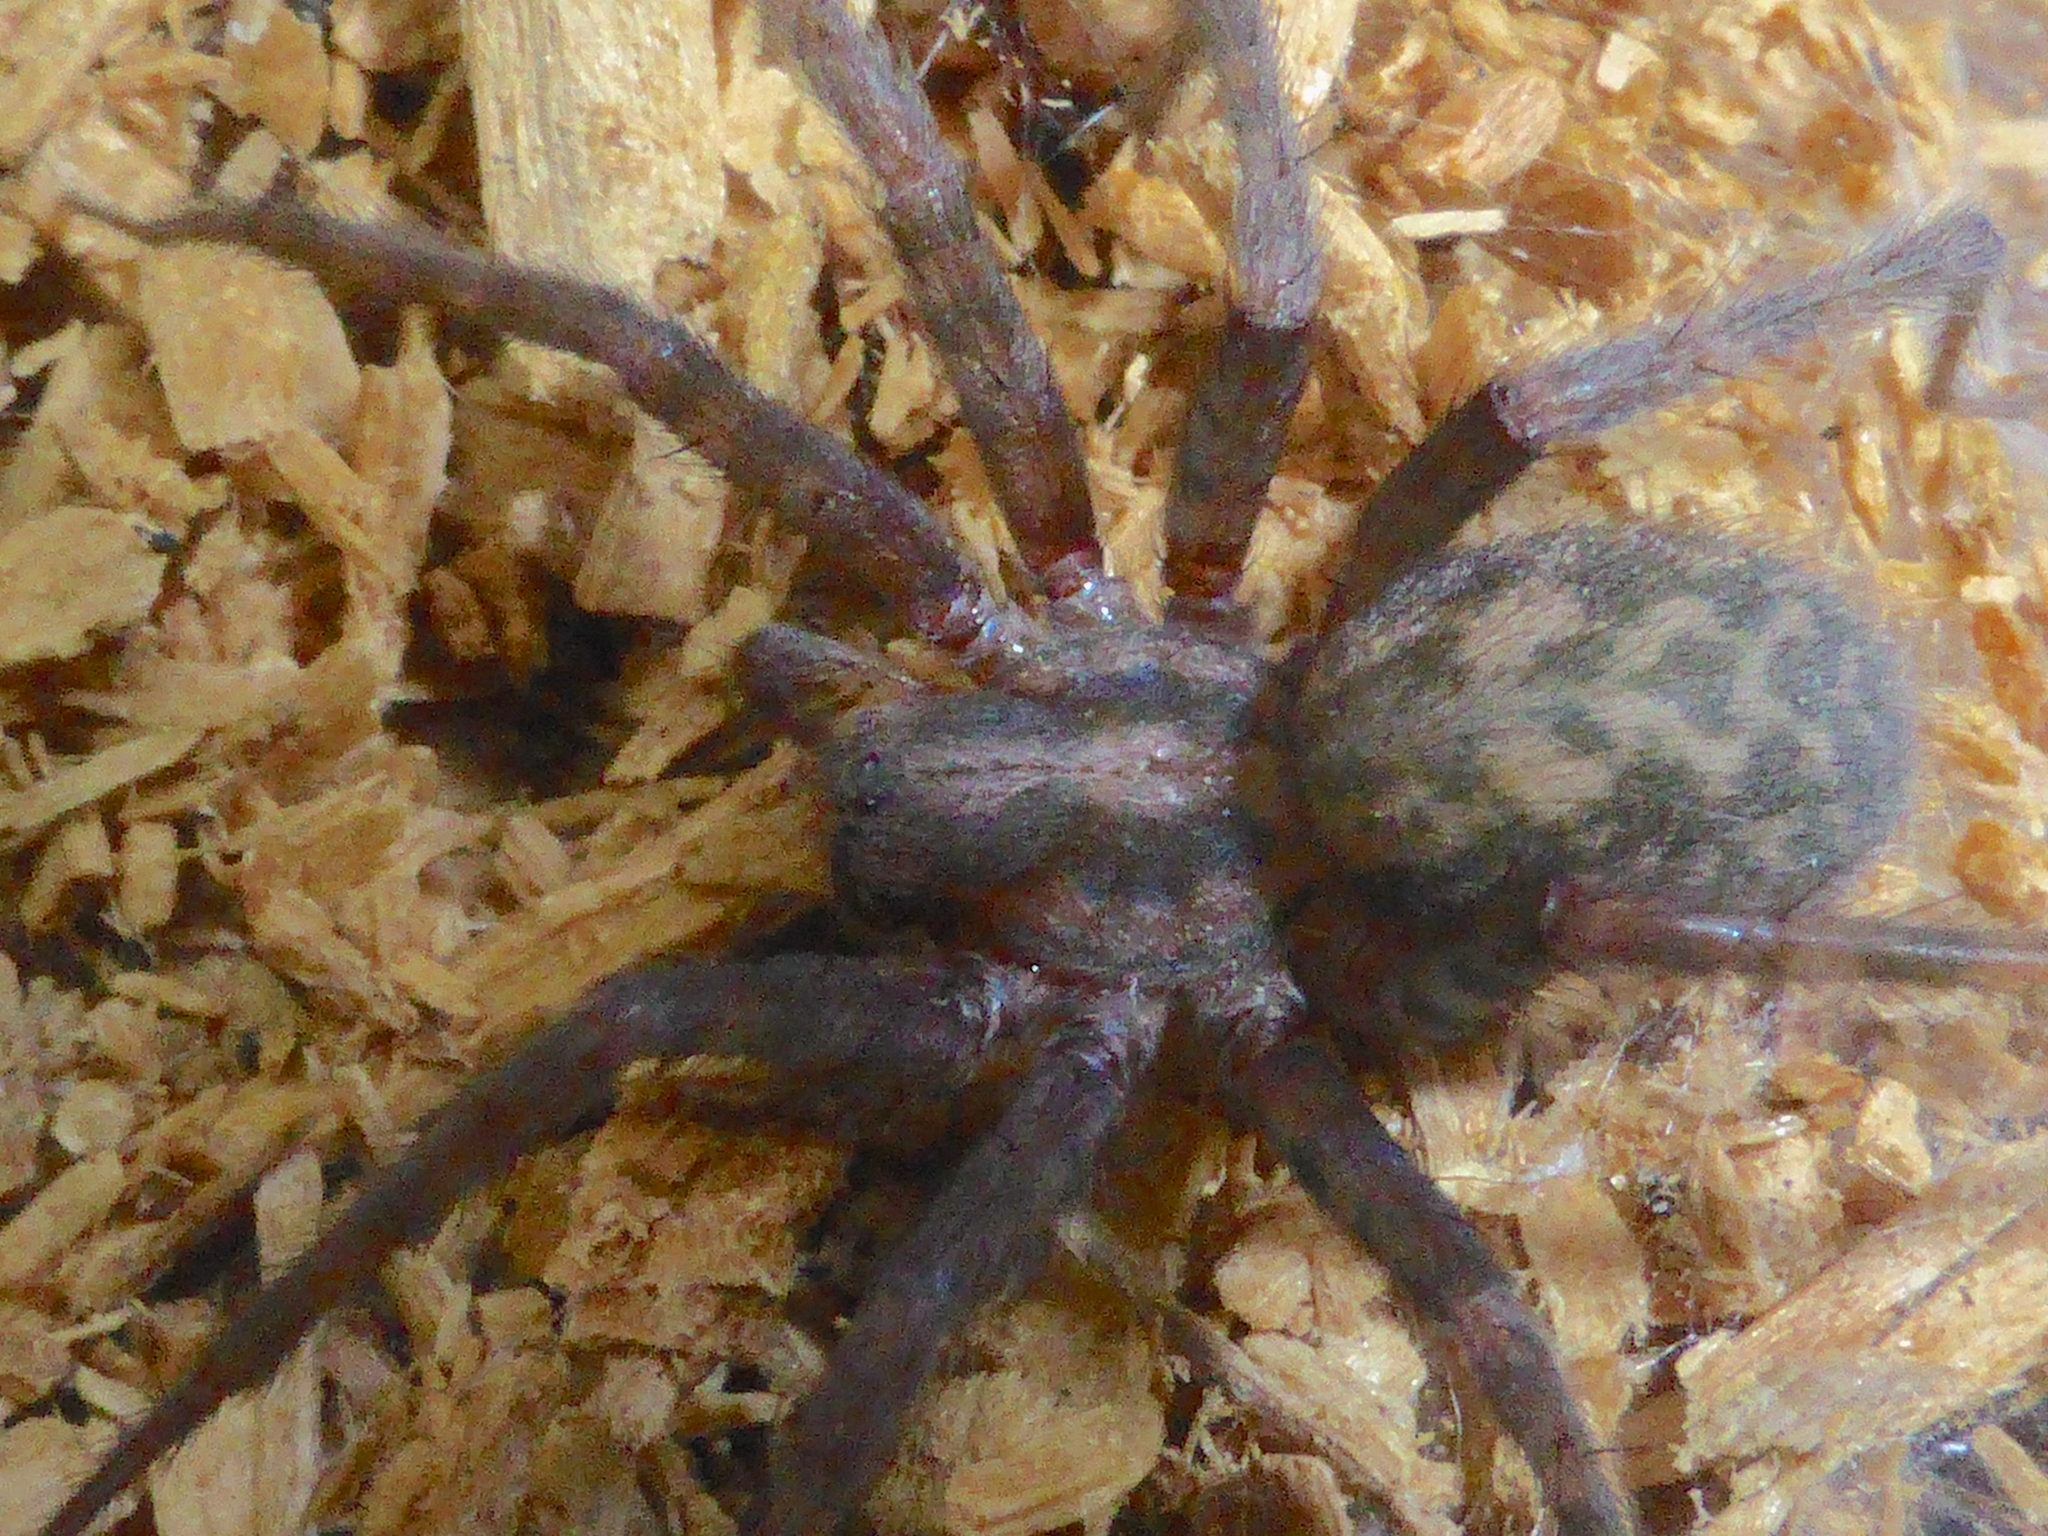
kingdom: Animalia
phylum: Arthropoda
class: Arachnida
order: Araneae
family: Agelenidae
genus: Tegenaria
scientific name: Tegenaria domestica
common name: Barn funnel weaver
